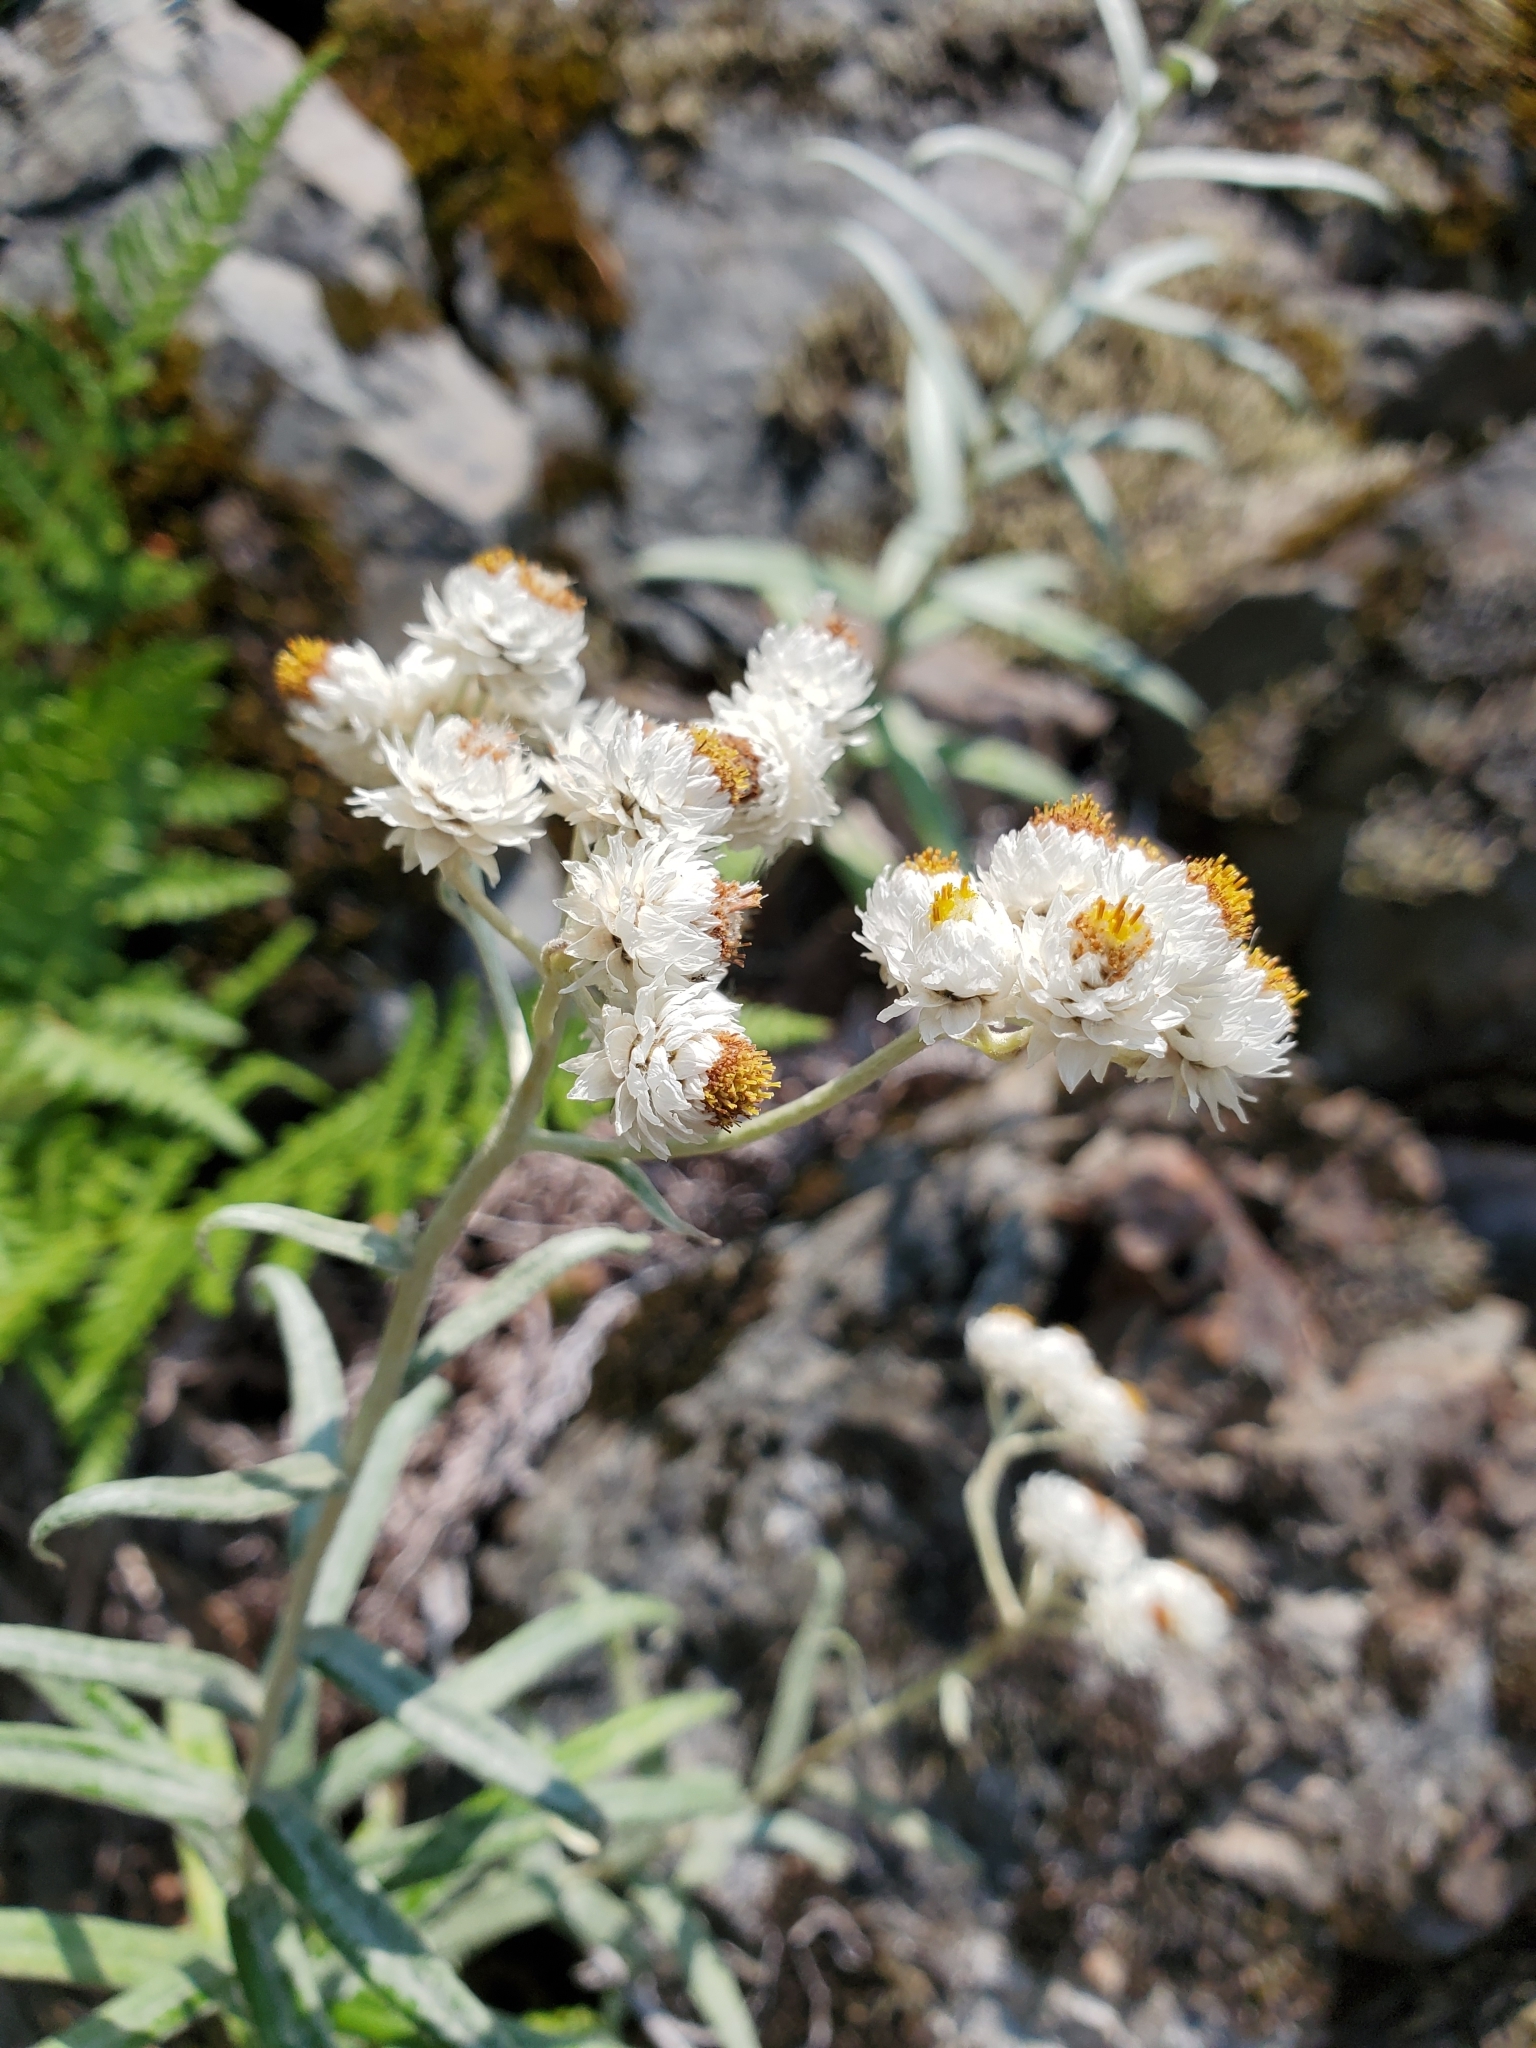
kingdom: Plantae
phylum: Tracheophyta
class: Magnoliopsida
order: Asterales
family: Asteraceae
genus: Anaphalis
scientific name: Anaphalis margaritacea
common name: Pearly everlasting
